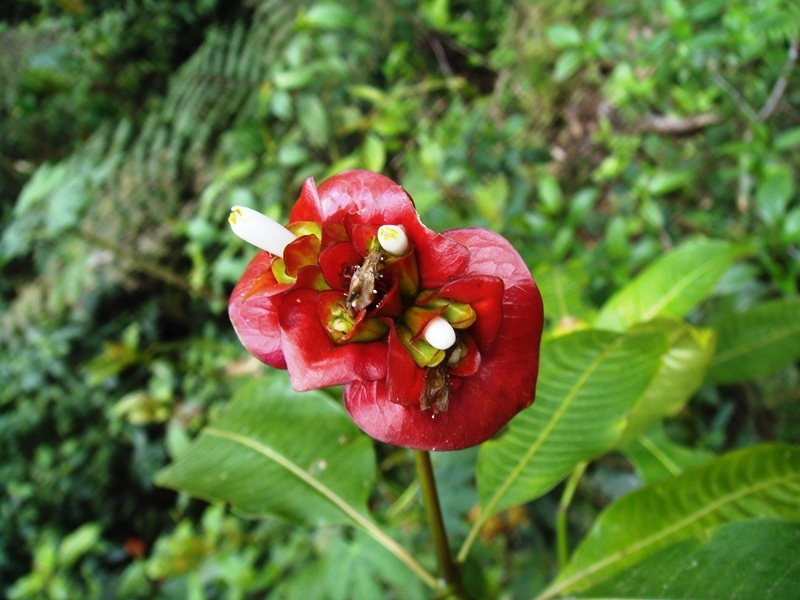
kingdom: Plantae
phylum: Tracheophyta
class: Magnoliopsida
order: Gentianales
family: Rubiaceae
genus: Palicourea
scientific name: Palicourea elata
